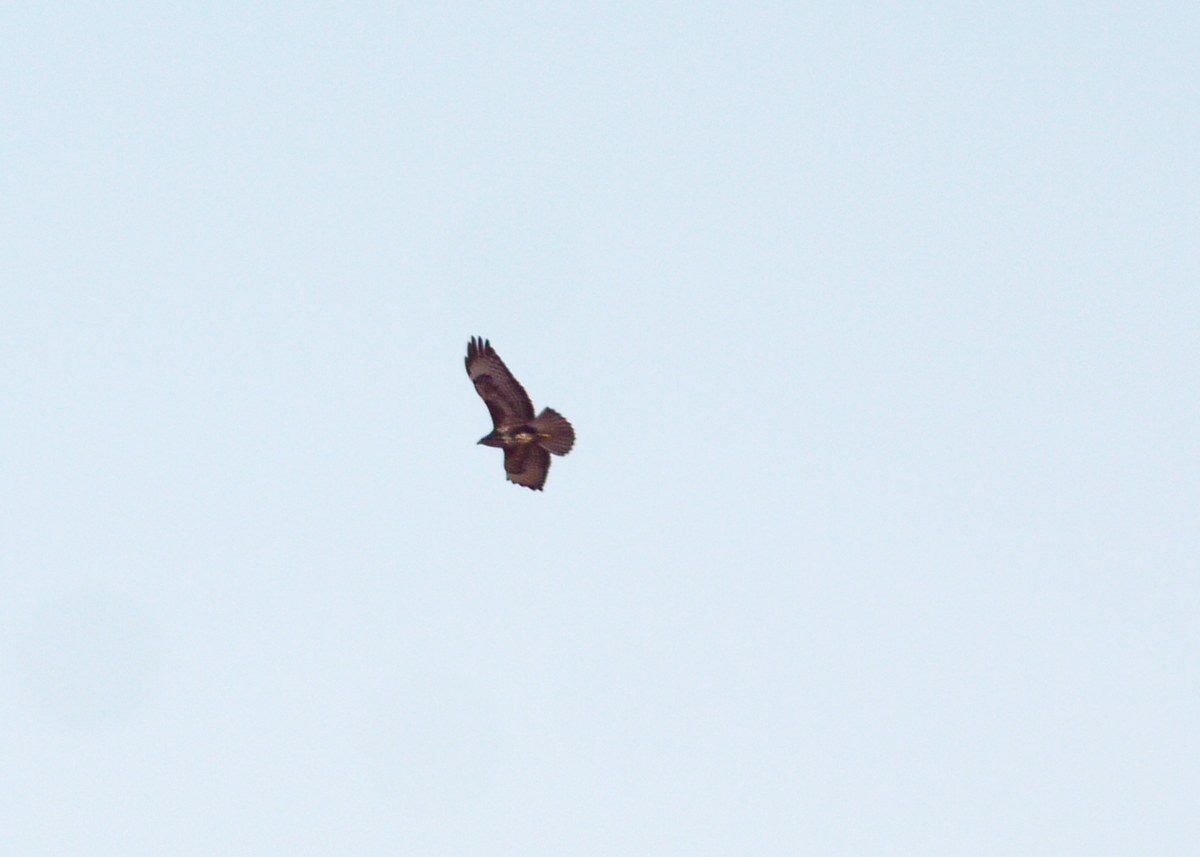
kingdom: Animalia
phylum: Chordata
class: Aves
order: Accipitriformes
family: Accipitridae
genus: Buteo
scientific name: Buteo buteo
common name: Common buzzard
